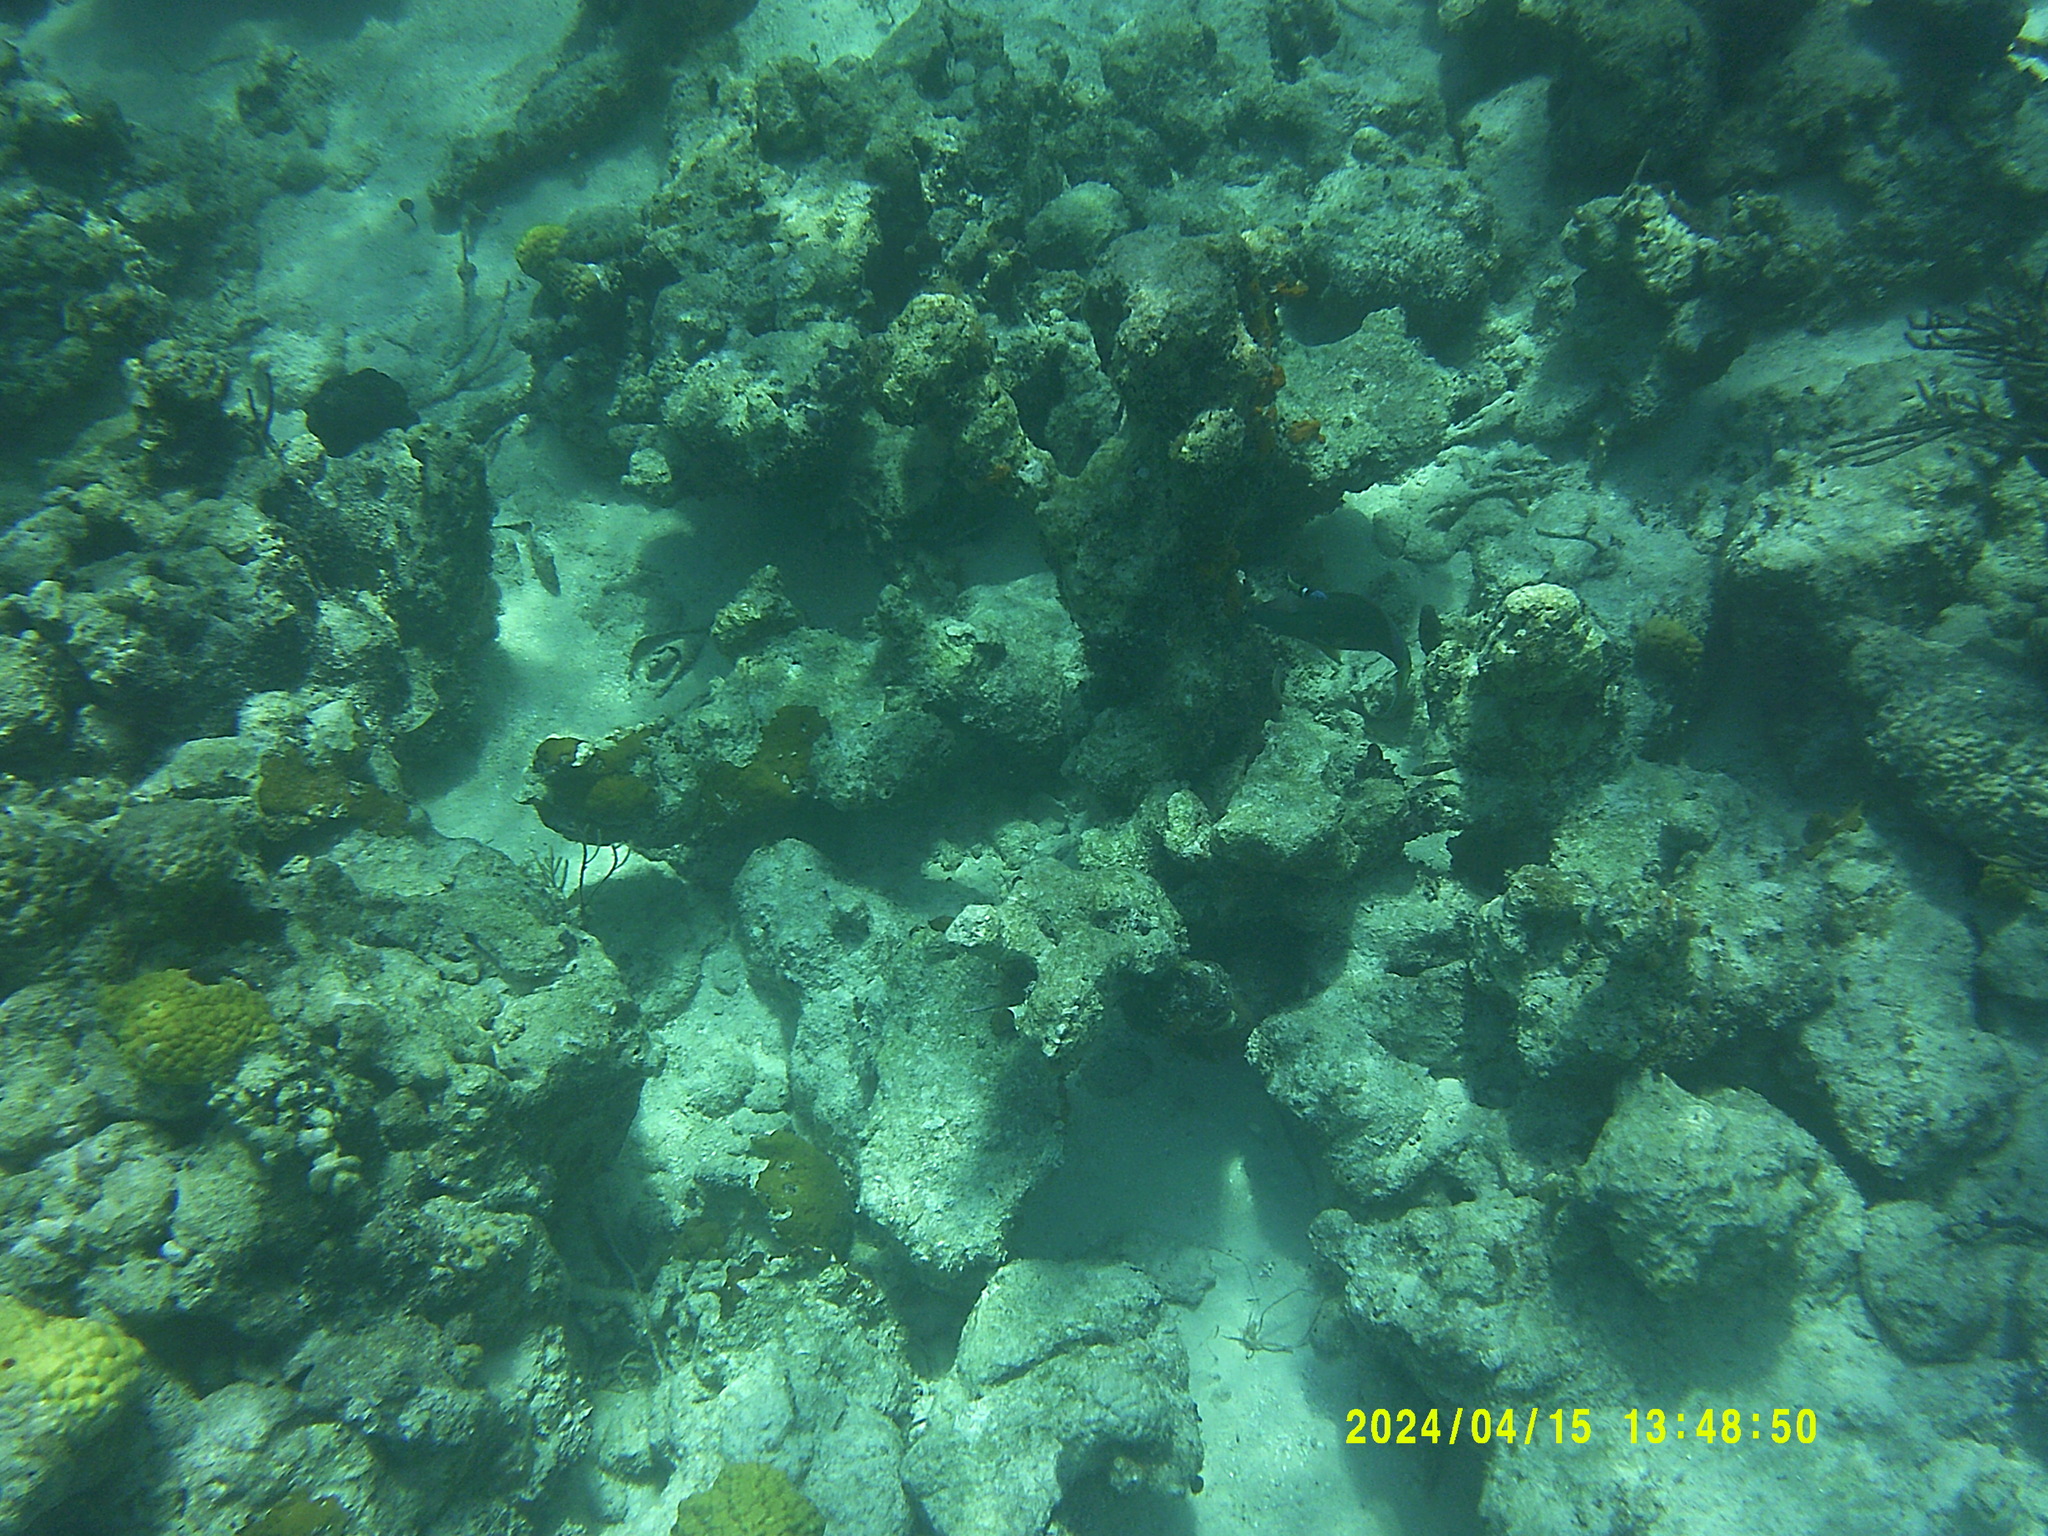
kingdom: Animalia
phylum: Chordata
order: Perciformes
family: Labridae
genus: Thalassoma
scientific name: Thalassoma bifasciatum
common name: Bluehead wrasse
